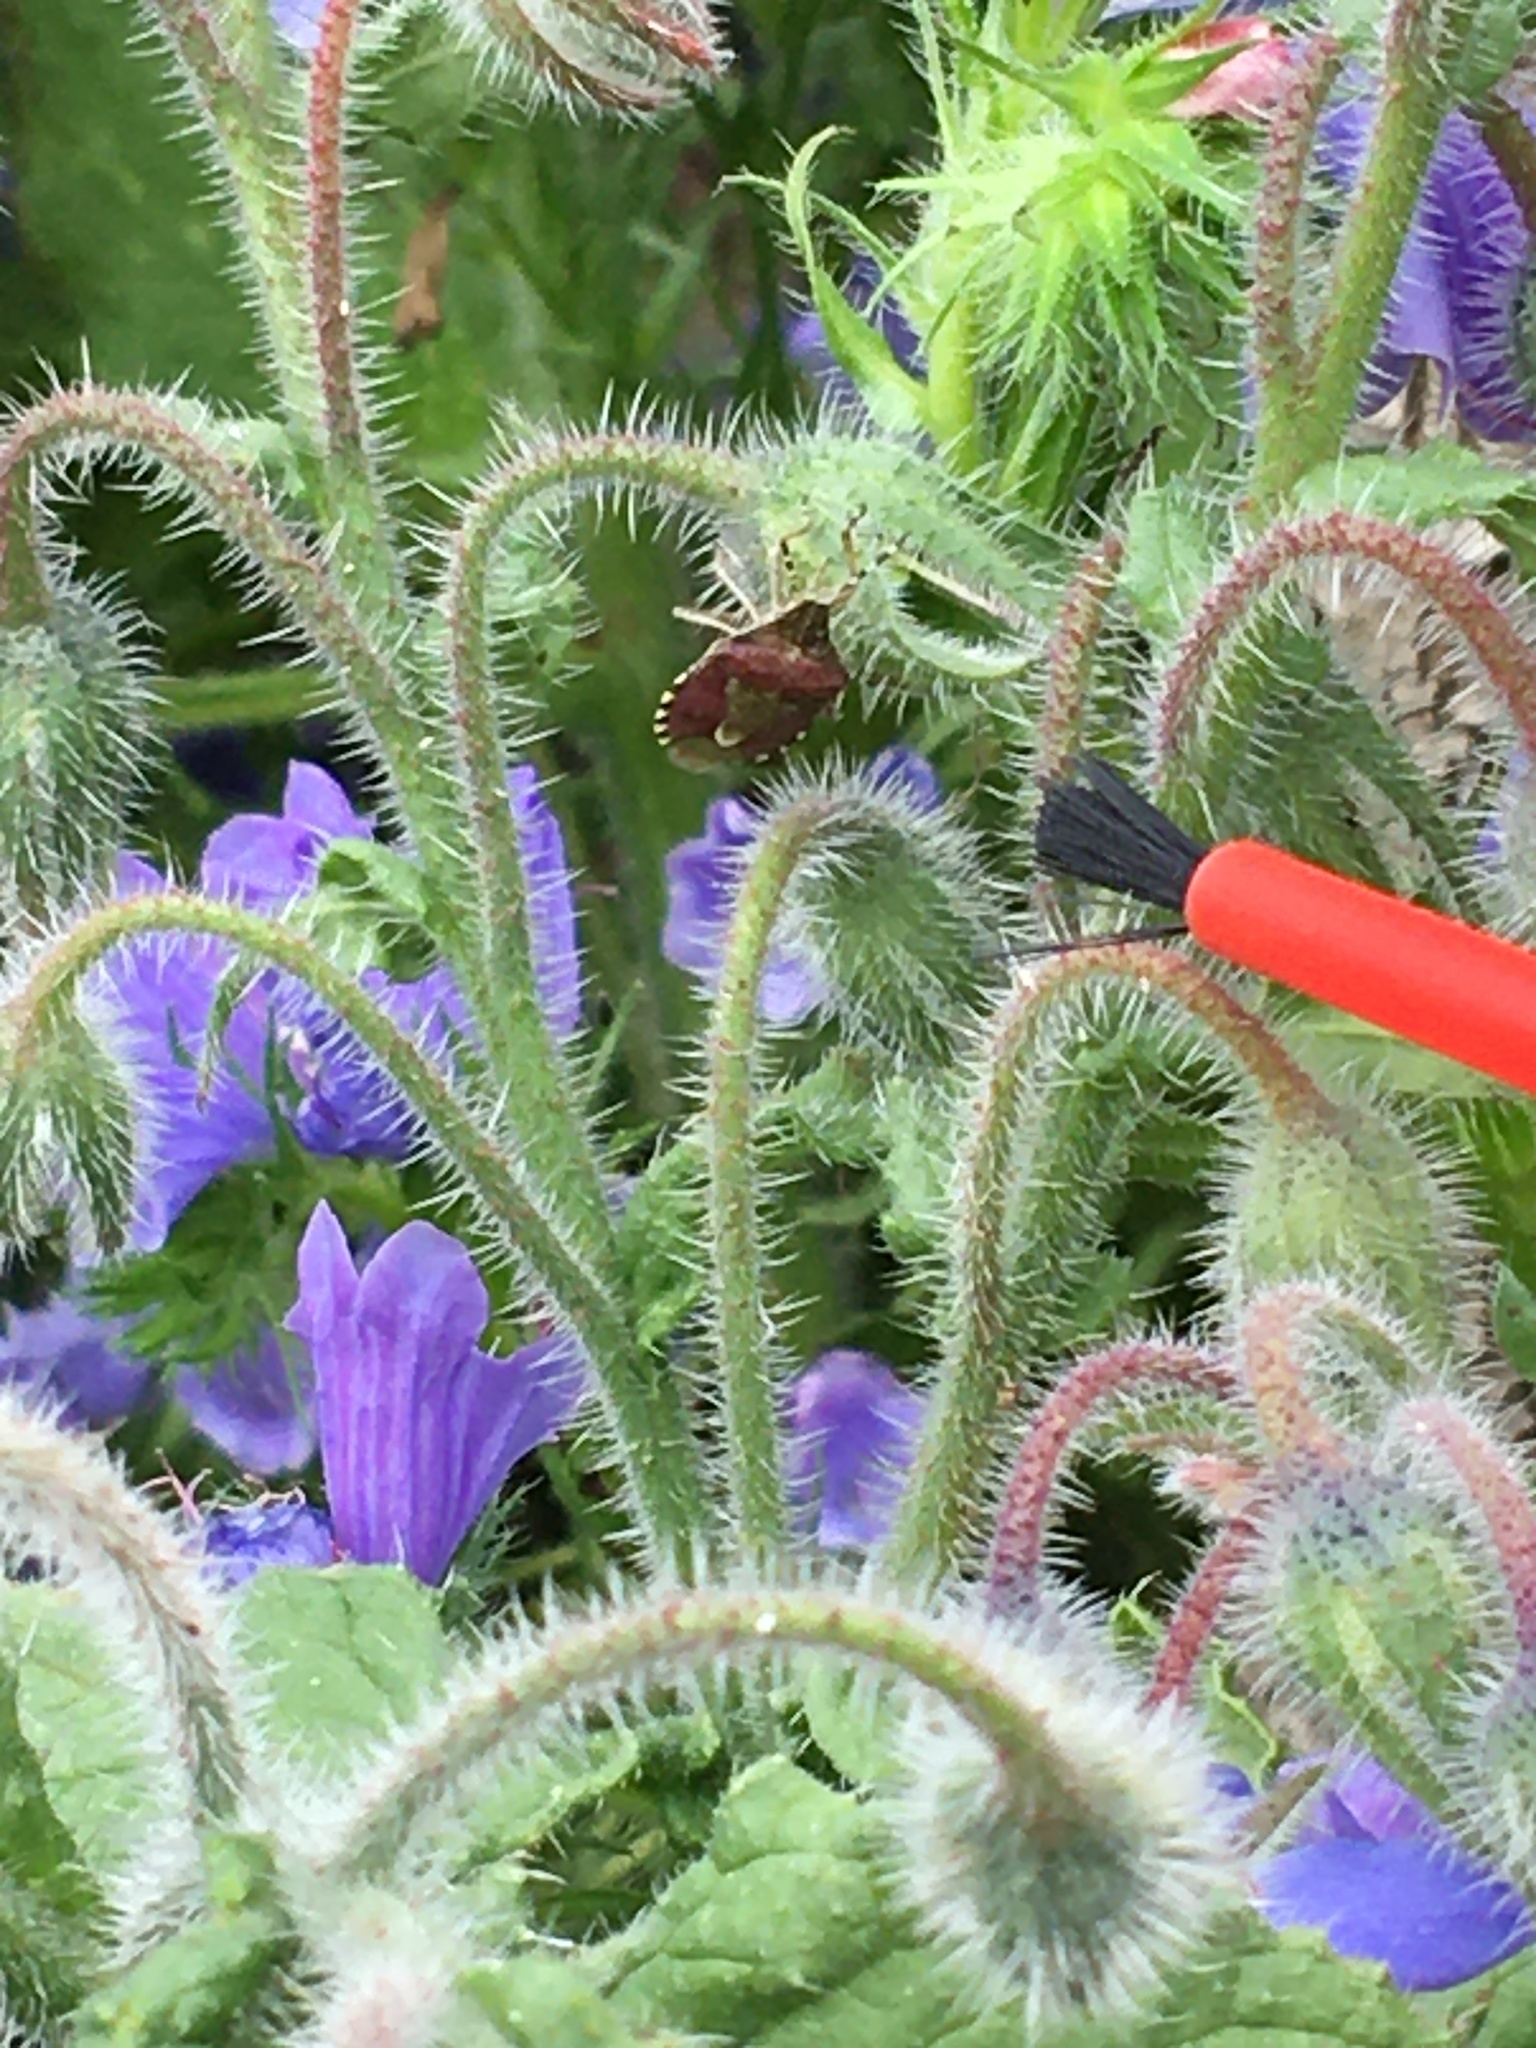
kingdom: Animalia
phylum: Arthropoda
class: Insecta
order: Hemiptera
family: Pentatomidae
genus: Dolycoris
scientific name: Dolycoris baccarum
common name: Sloe bug
